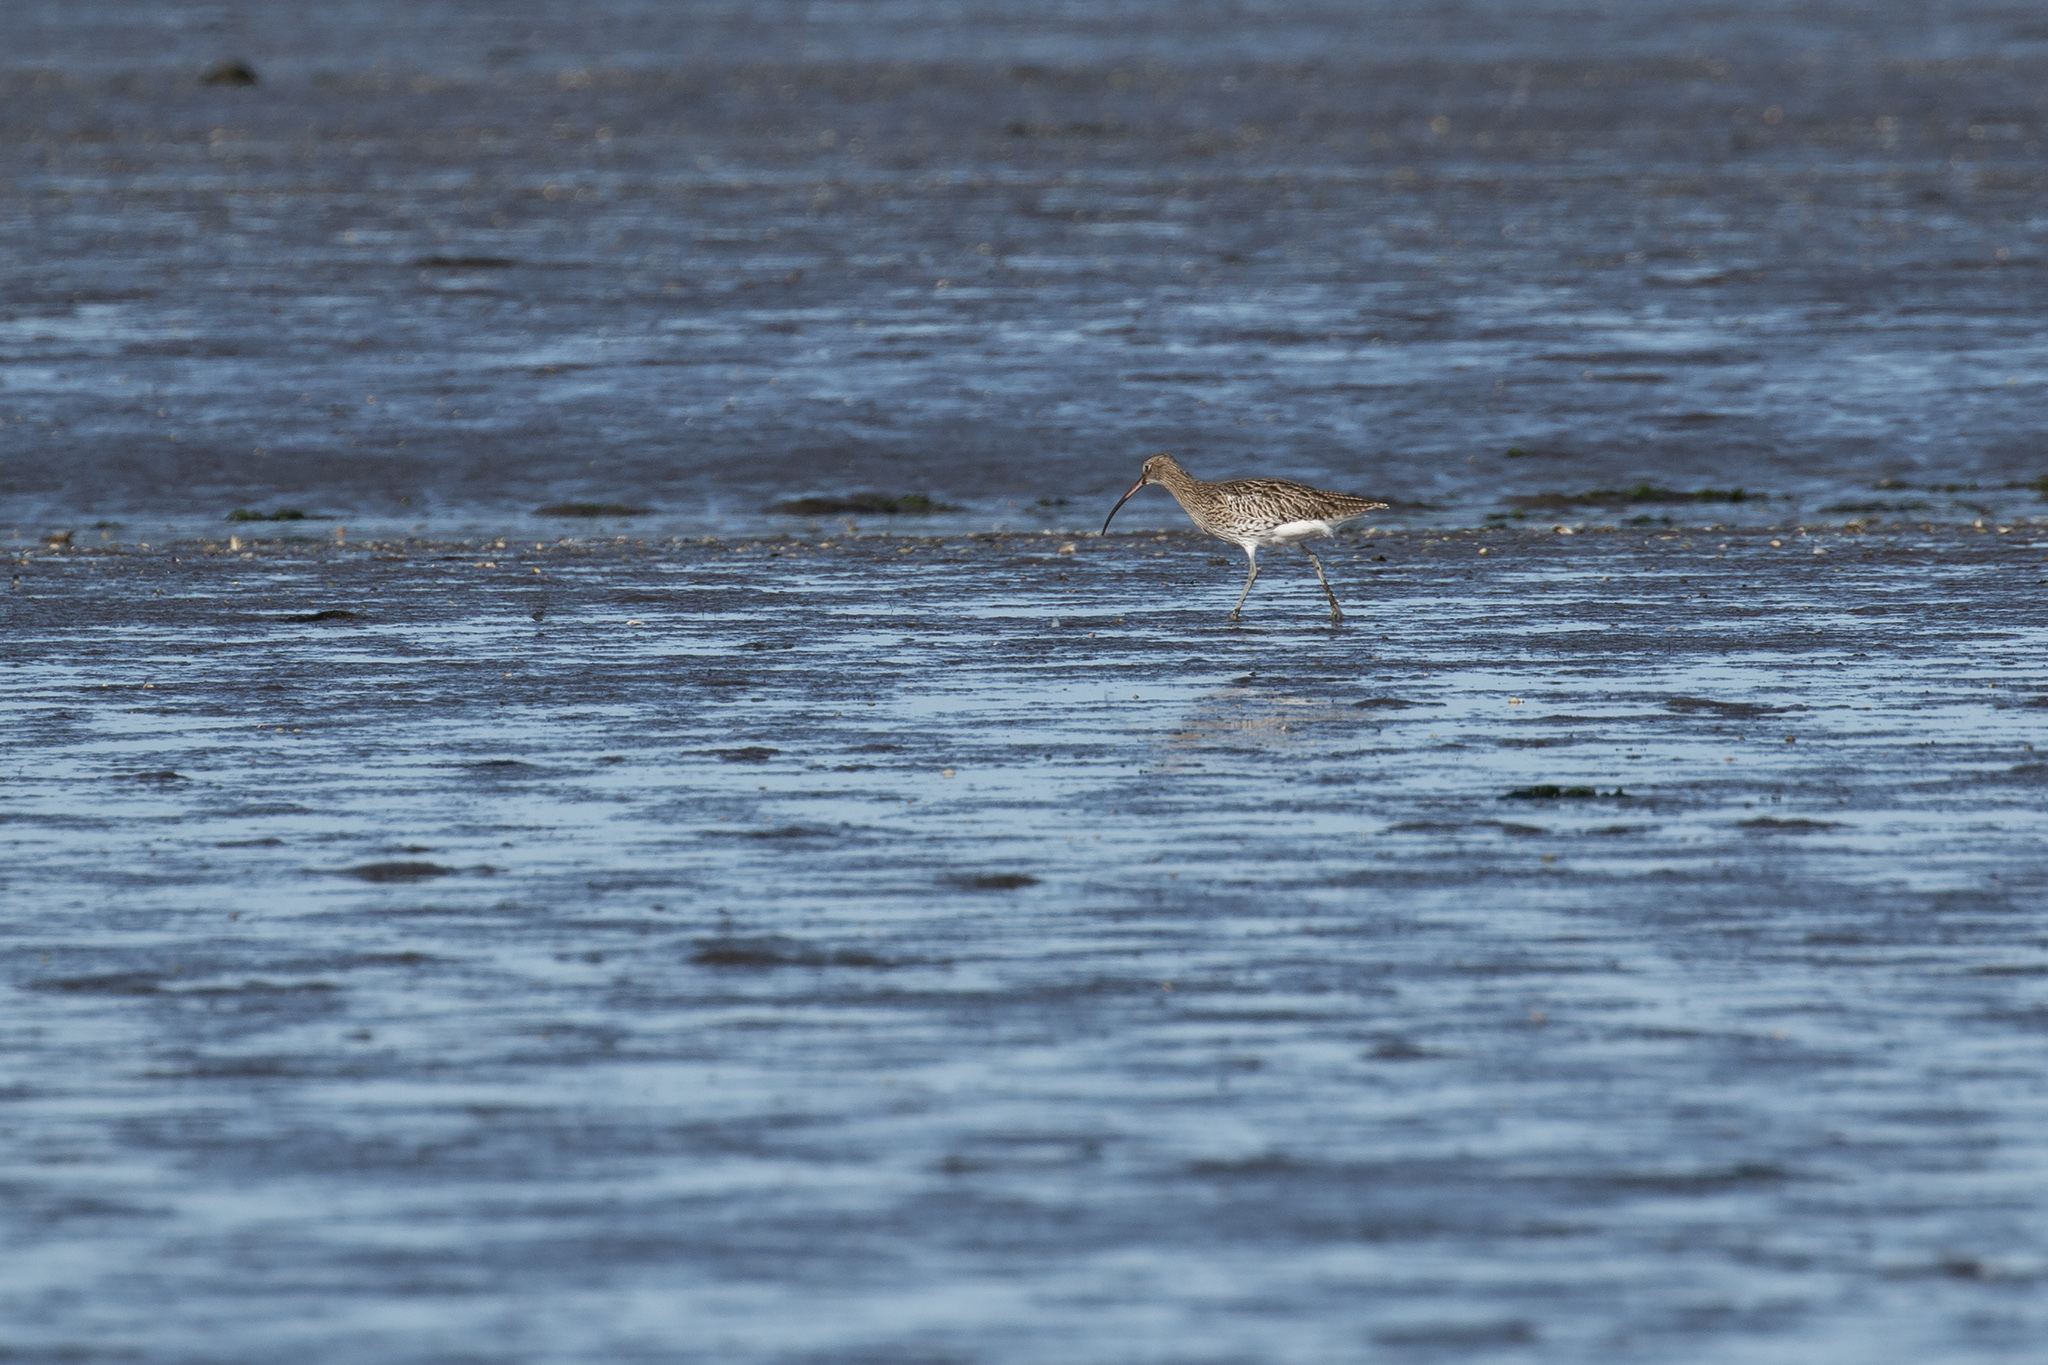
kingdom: Animalia
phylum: Chordata
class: Aves
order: Charadriiformes
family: Scolopacidae
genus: Numenius
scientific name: Numenius arquata
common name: Eurasian curlew
